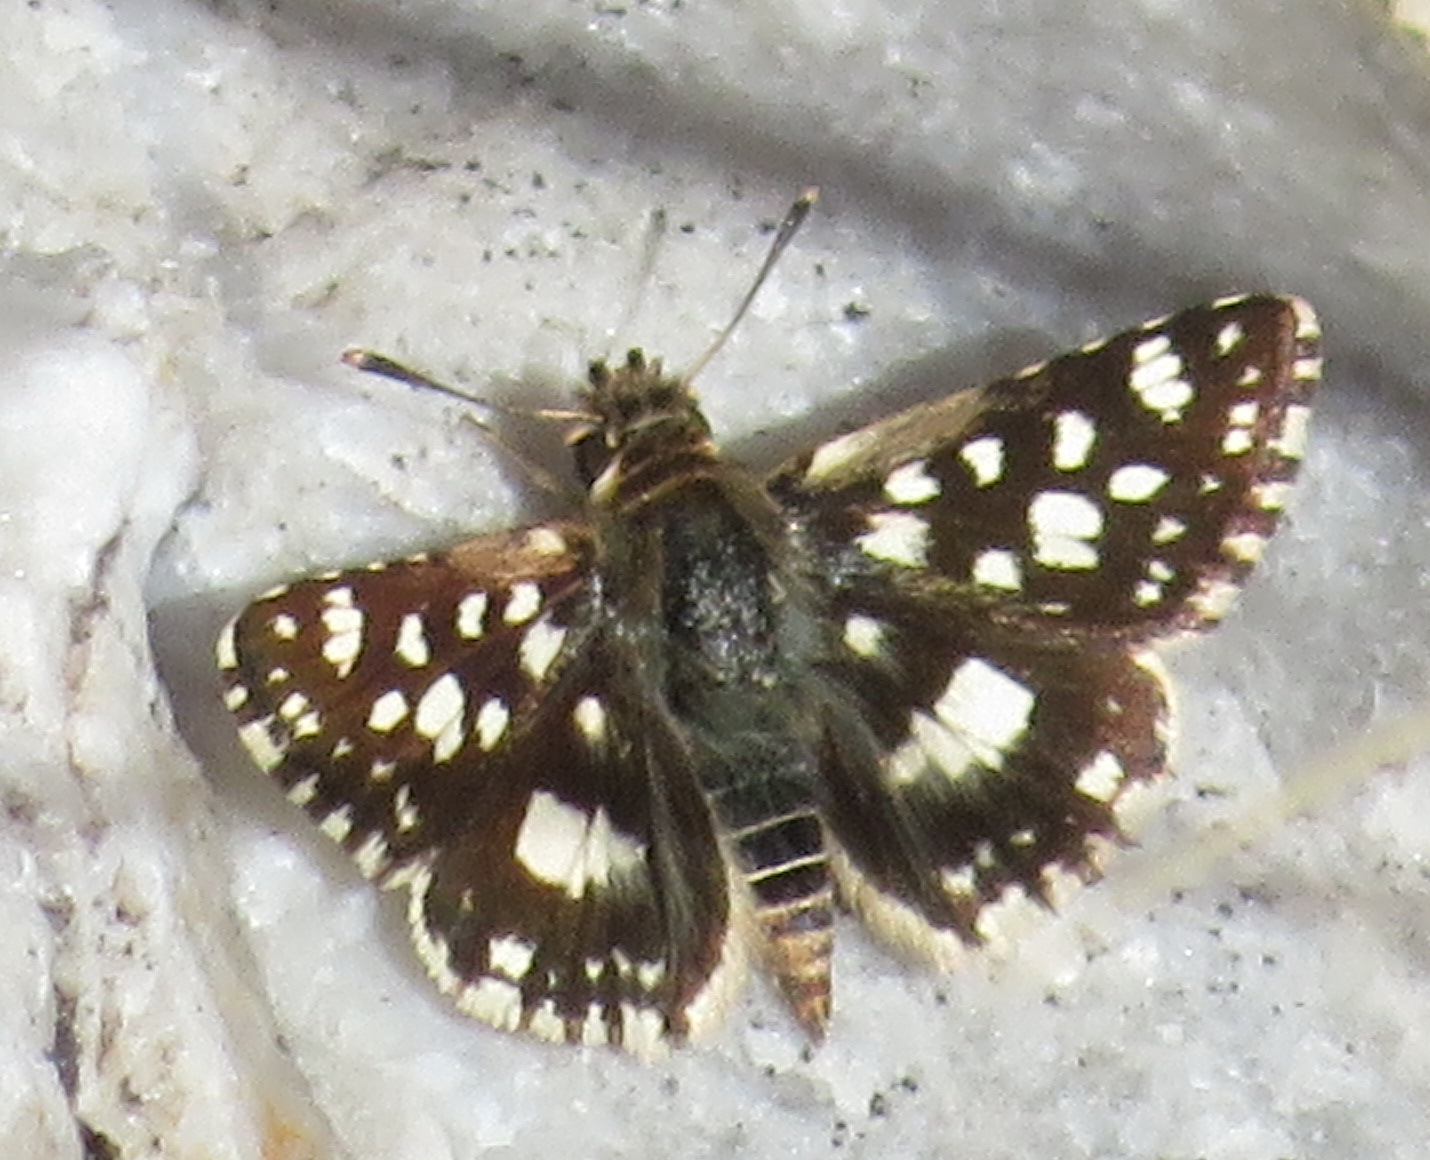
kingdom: Animalia
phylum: Arthropoda
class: Insecta
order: Lepidoptera
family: Hesperiidae
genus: Spialia
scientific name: Spialia spio
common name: Mountain sandman
